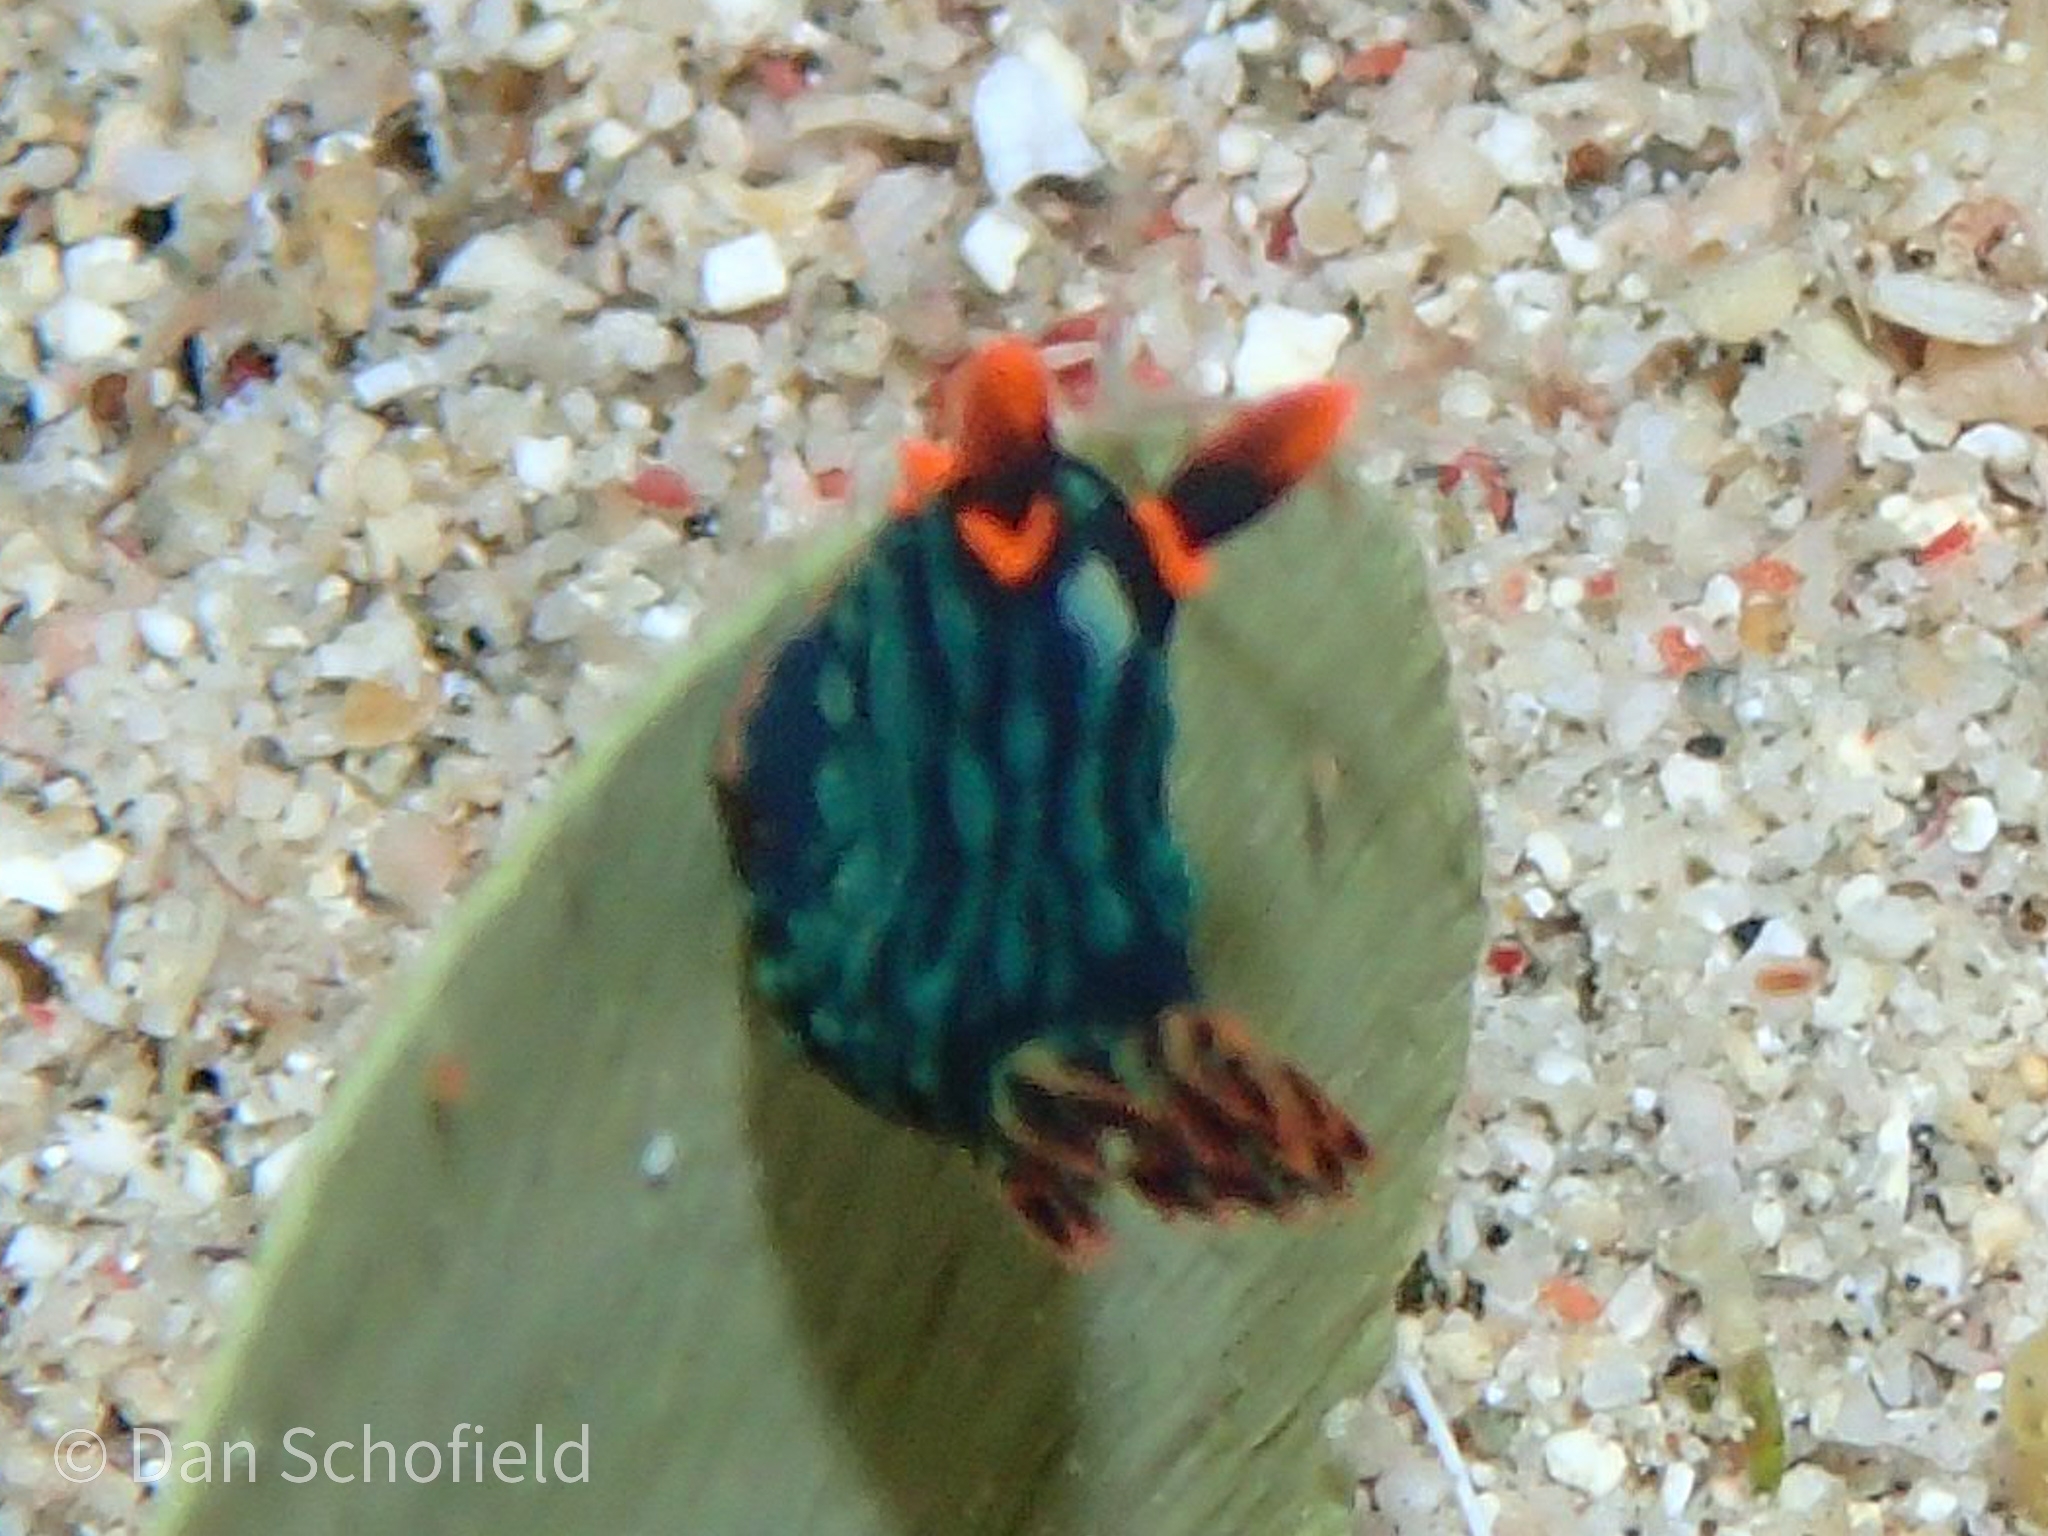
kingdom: Animalia
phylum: Mollusca
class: Gastropoda
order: Nudibranchia
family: Polyceridae
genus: Nembrotha
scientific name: Nembrotha kubaryana
